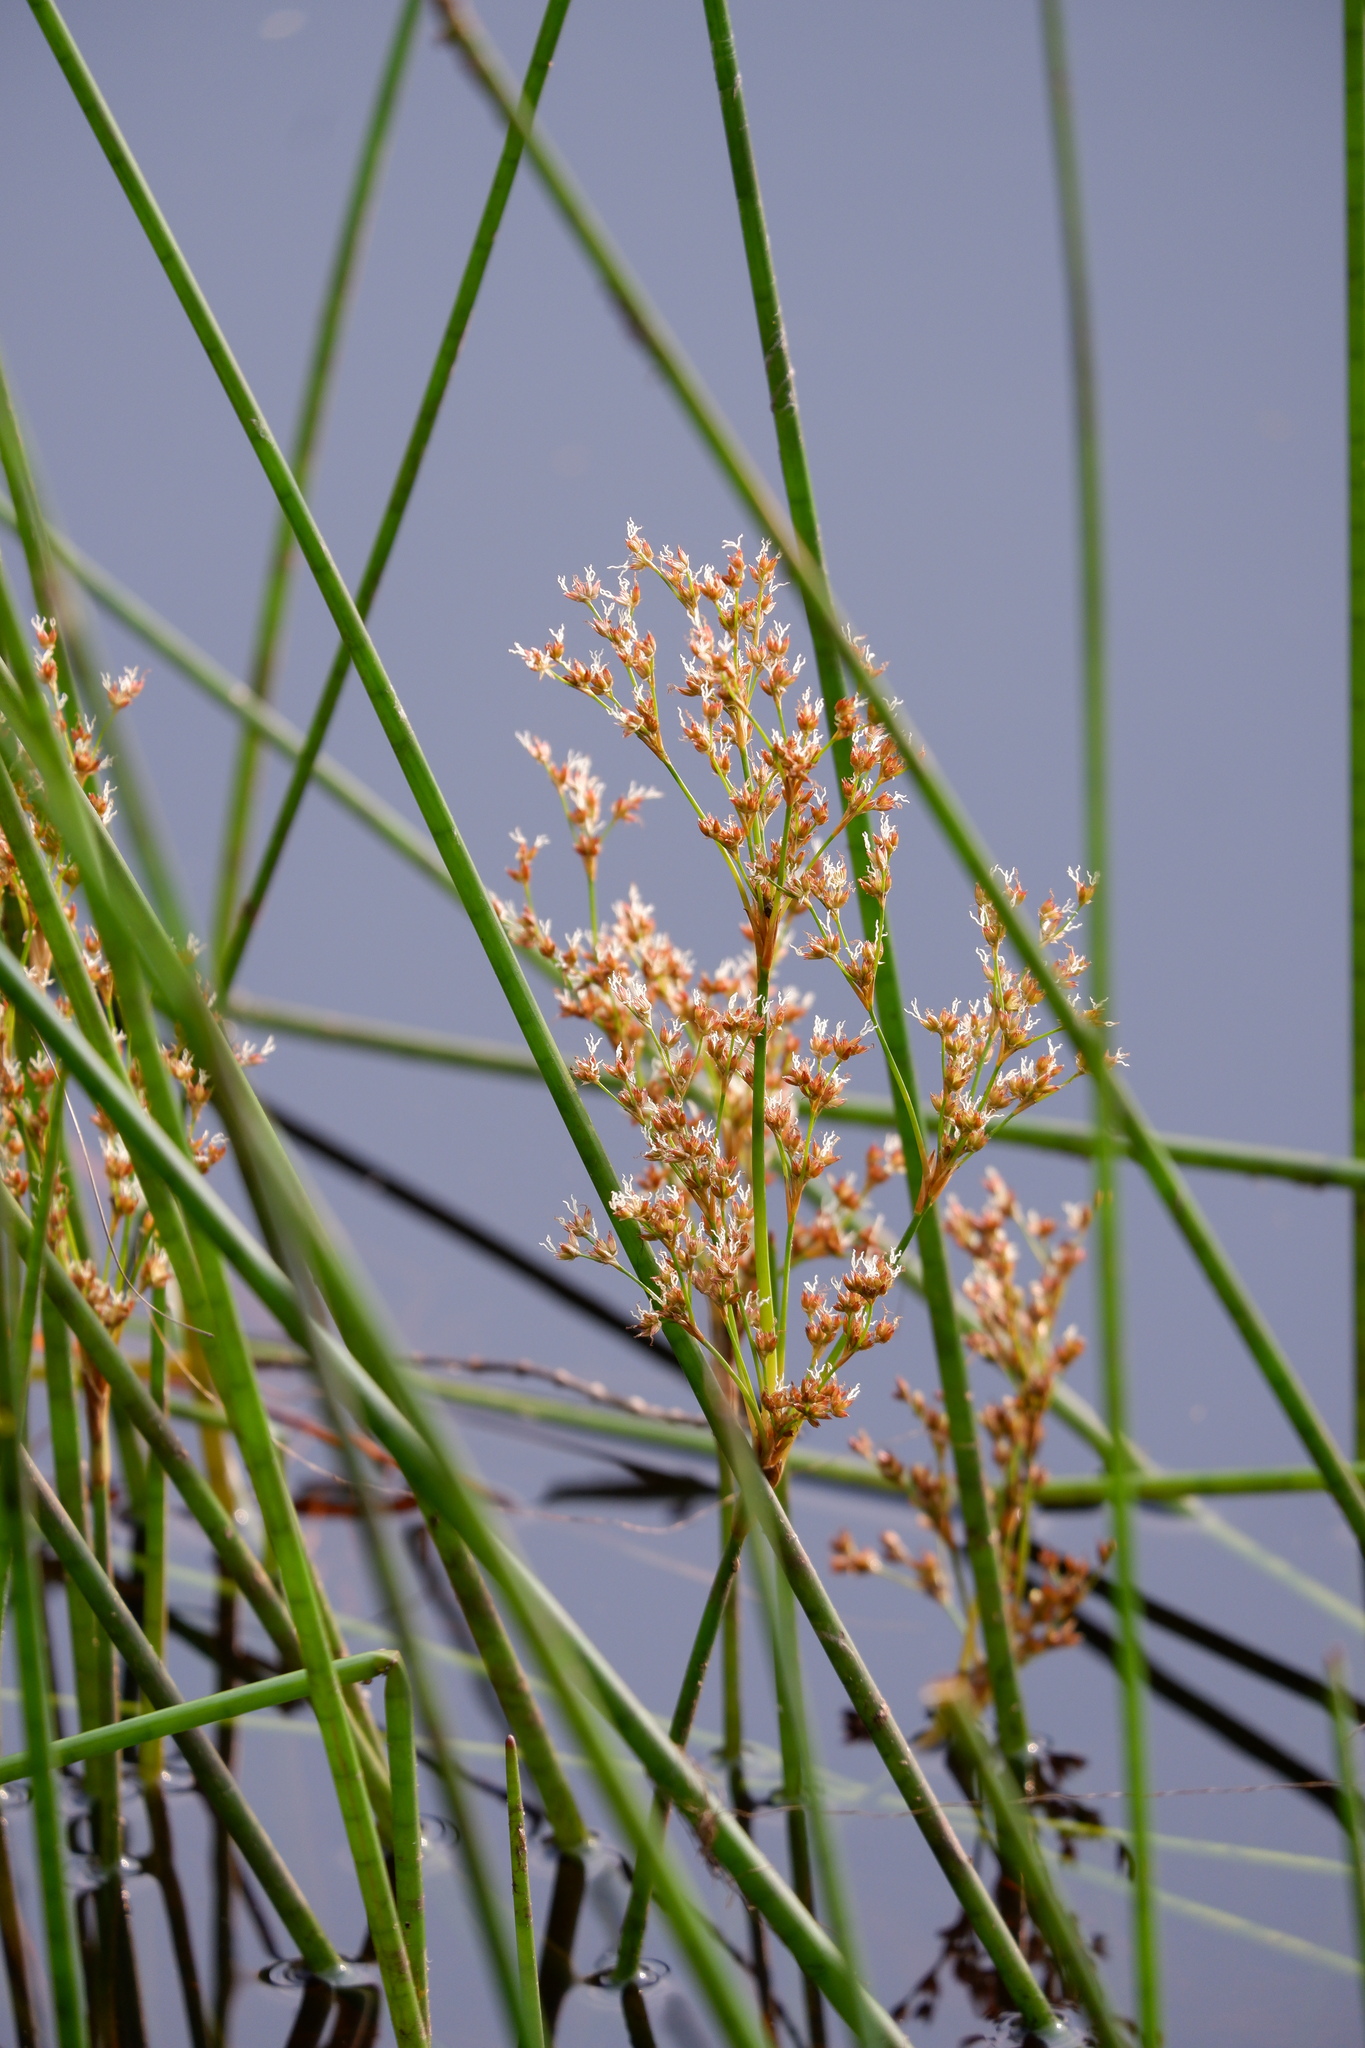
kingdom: Plantae
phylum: Tracheophyta
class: Liliopsida
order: Poales
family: Juncaceae
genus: Juncus
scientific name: Juncus militaris
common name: Bayonet rush
